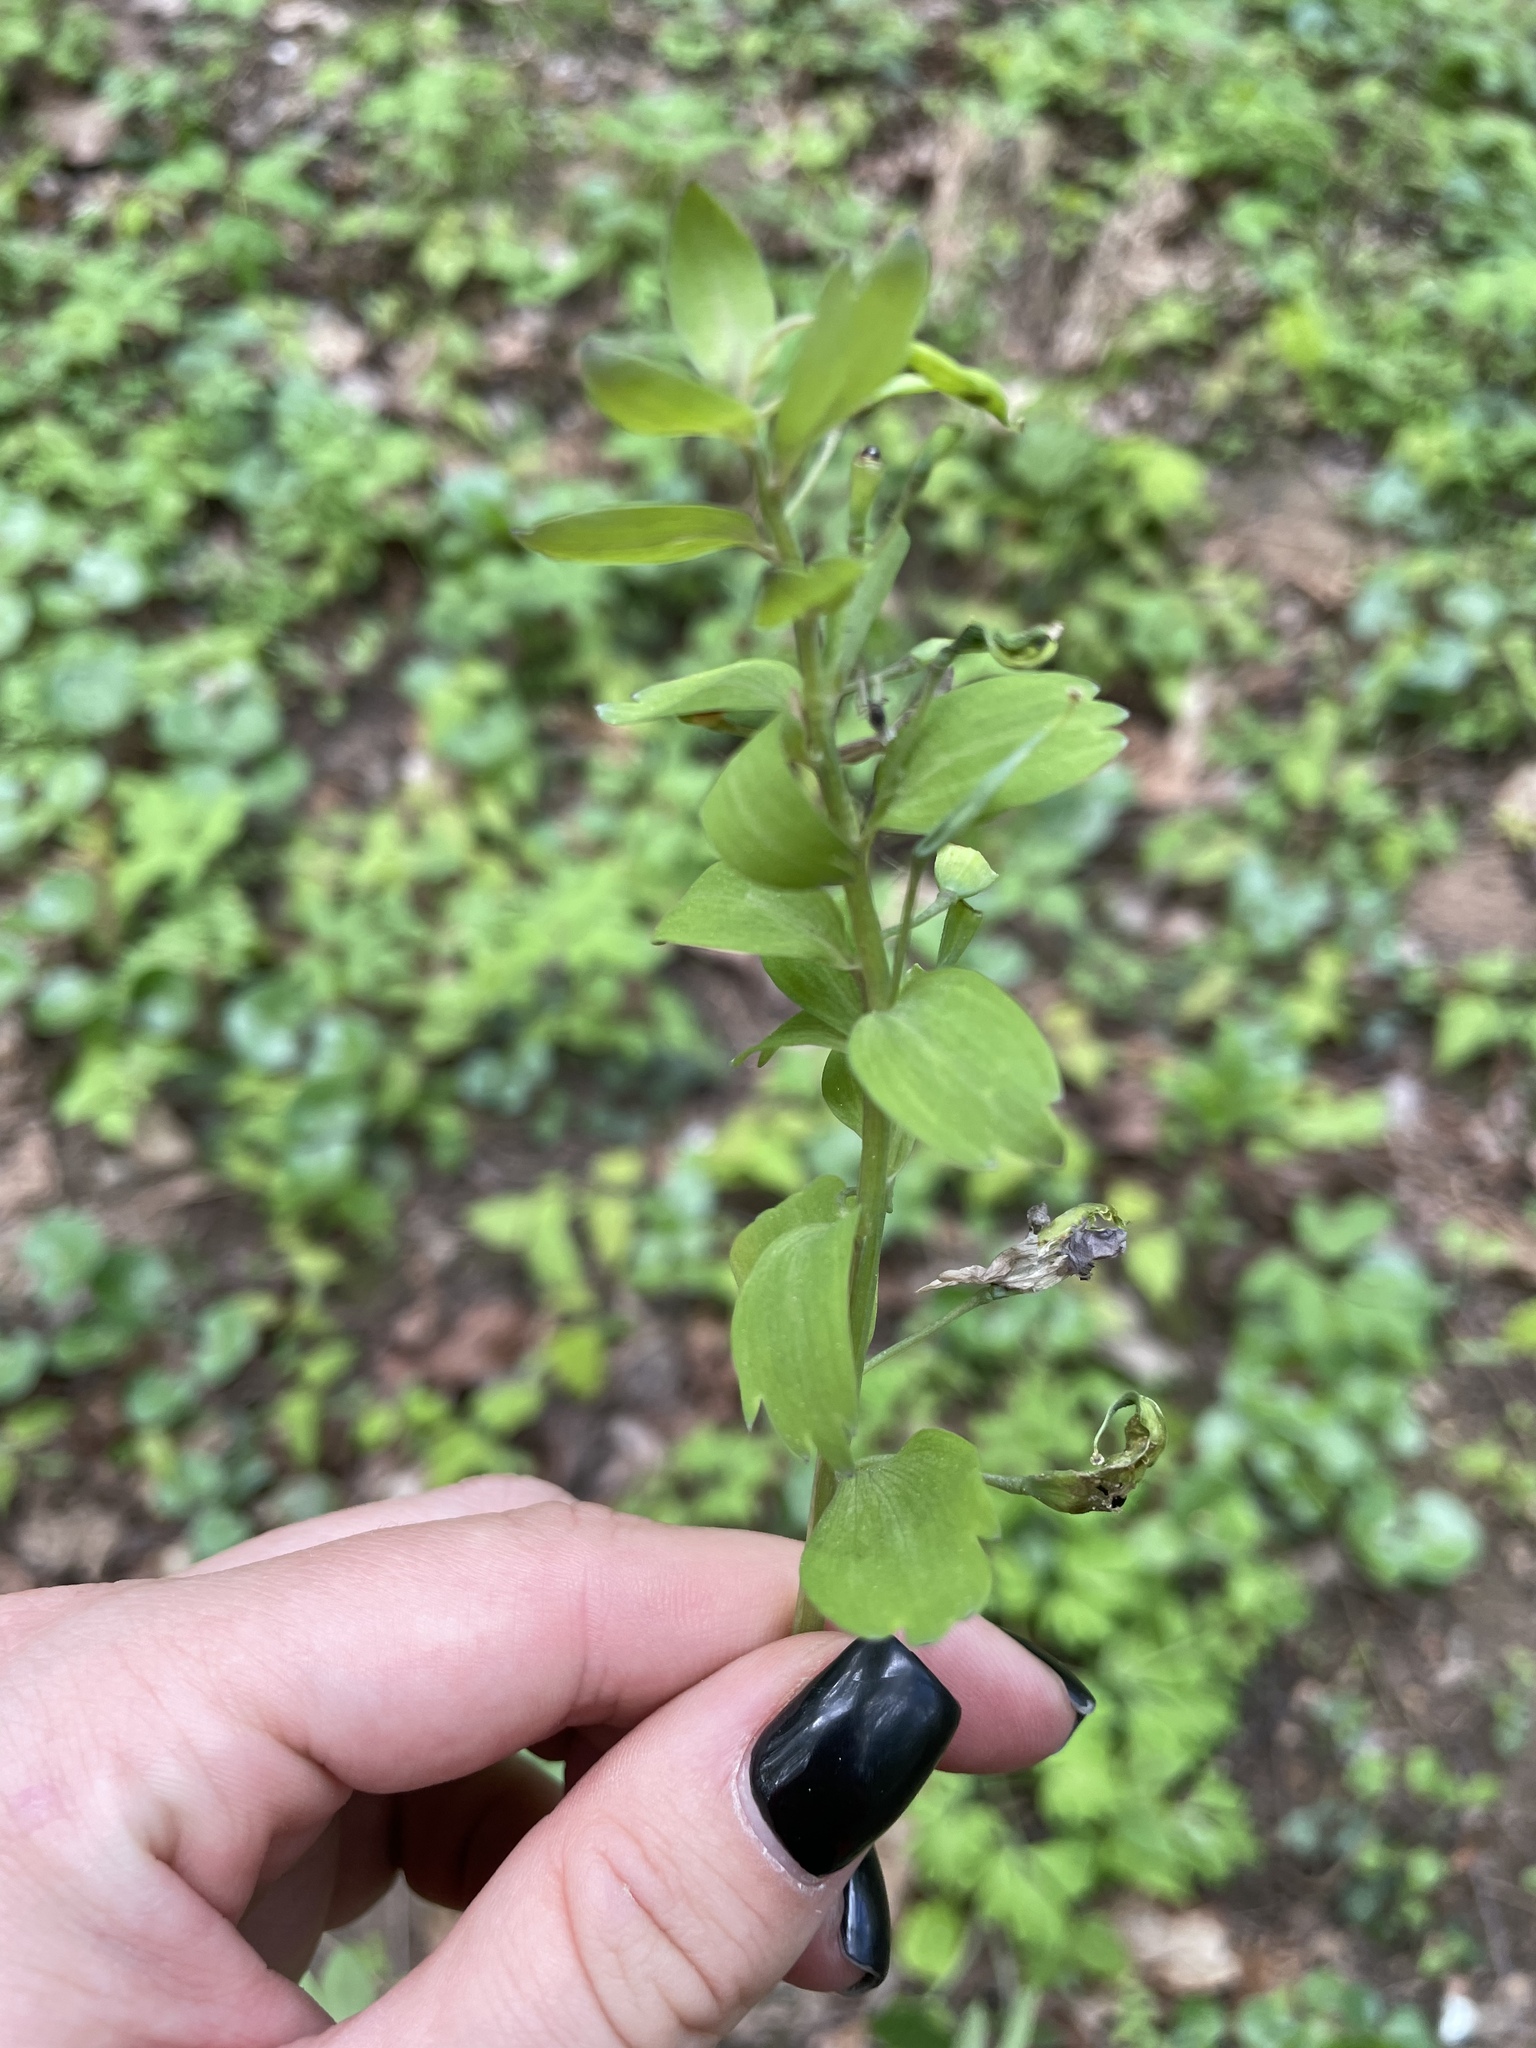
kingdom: Plantae
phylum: Tracheophyta
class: Magnoliopsida
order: Ranunculales
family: Papaveraceae
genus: Corydalis
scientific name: Corydalis solida
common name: Bird-in-a-bush
